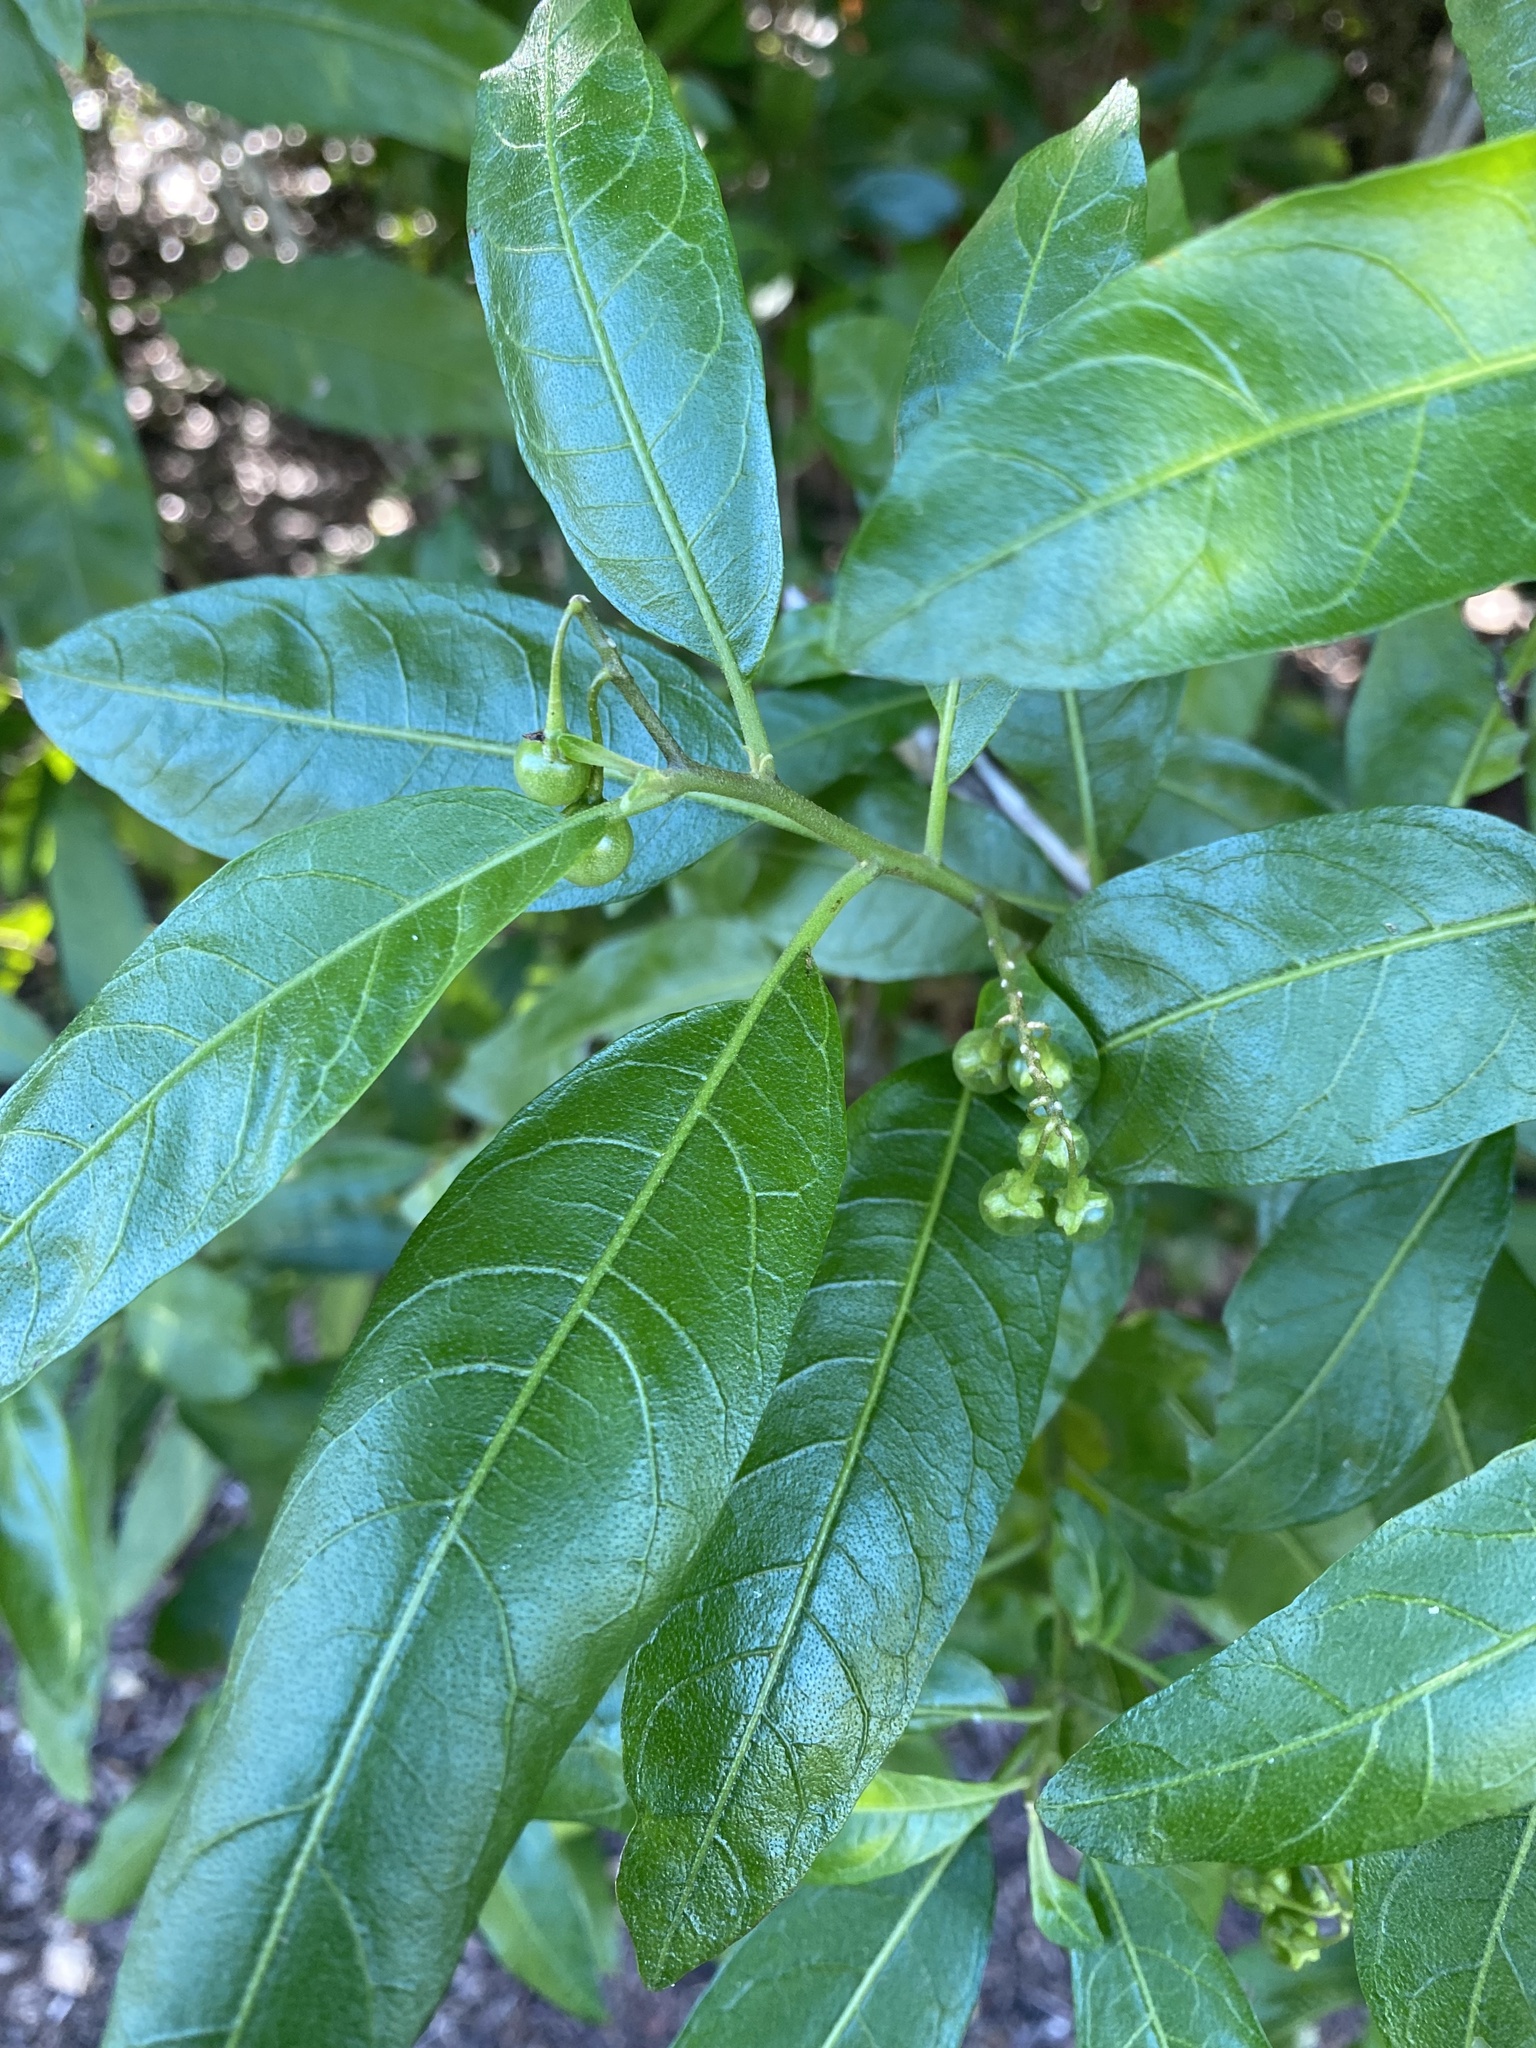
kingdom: Plantae
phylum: Tracheophyta
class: Magnoliopsida
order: Solanales
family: Solanaceae
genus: Solanum
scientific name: Solanum bahamense
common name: Canker-berry
